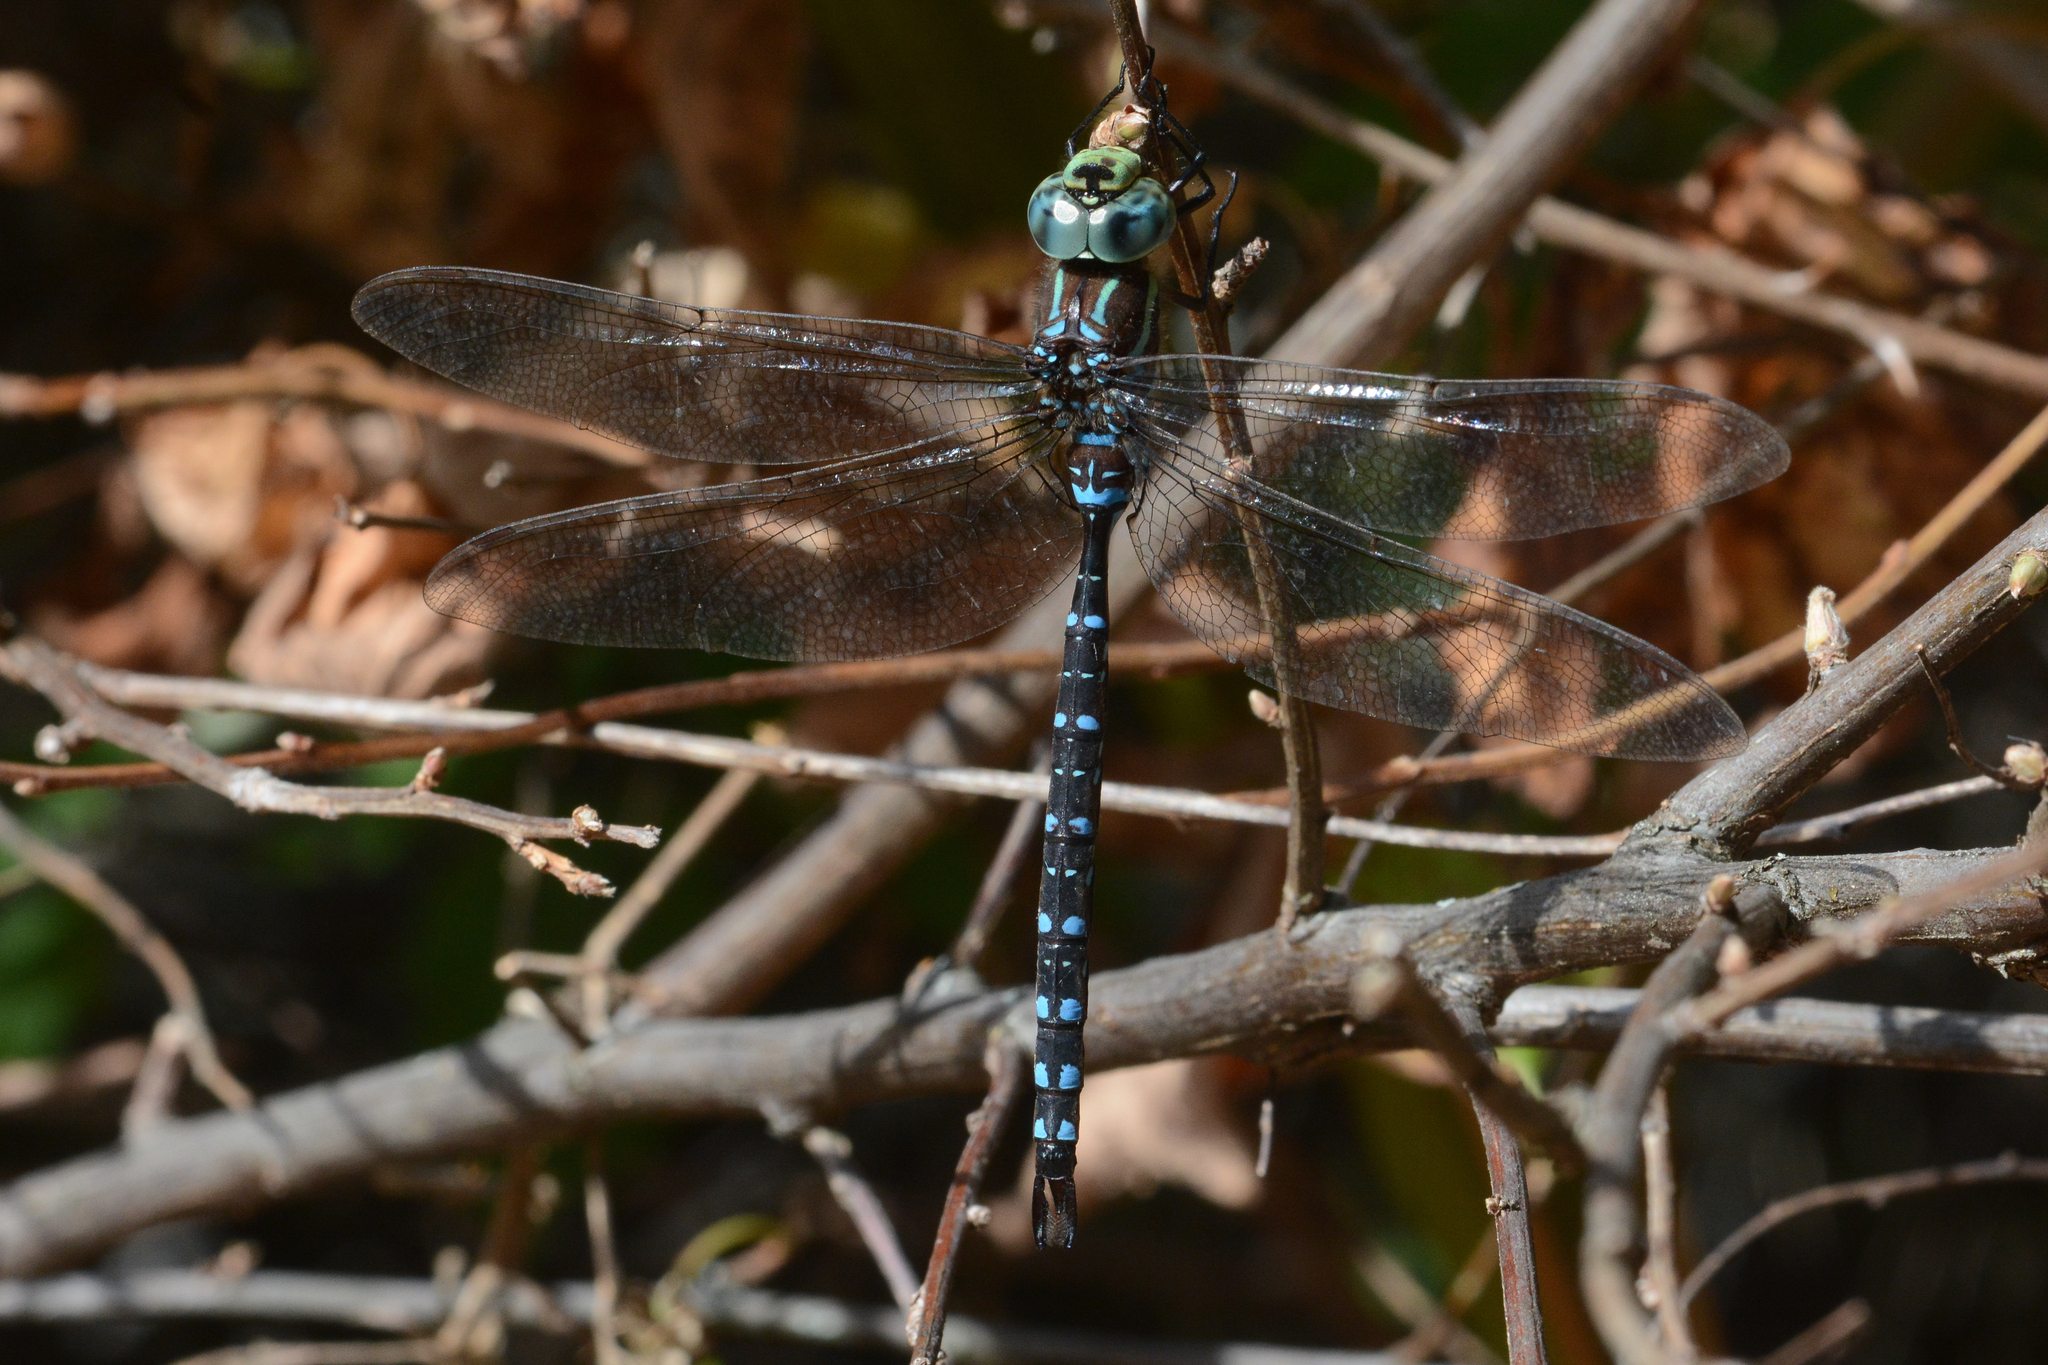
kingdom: Animalia
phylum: Arthropoda
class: Insecta
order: Odonata
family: Aeshnidae
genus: Aeshna
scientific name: Aeshna tuberculifera
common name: Aeschne à tubercules
